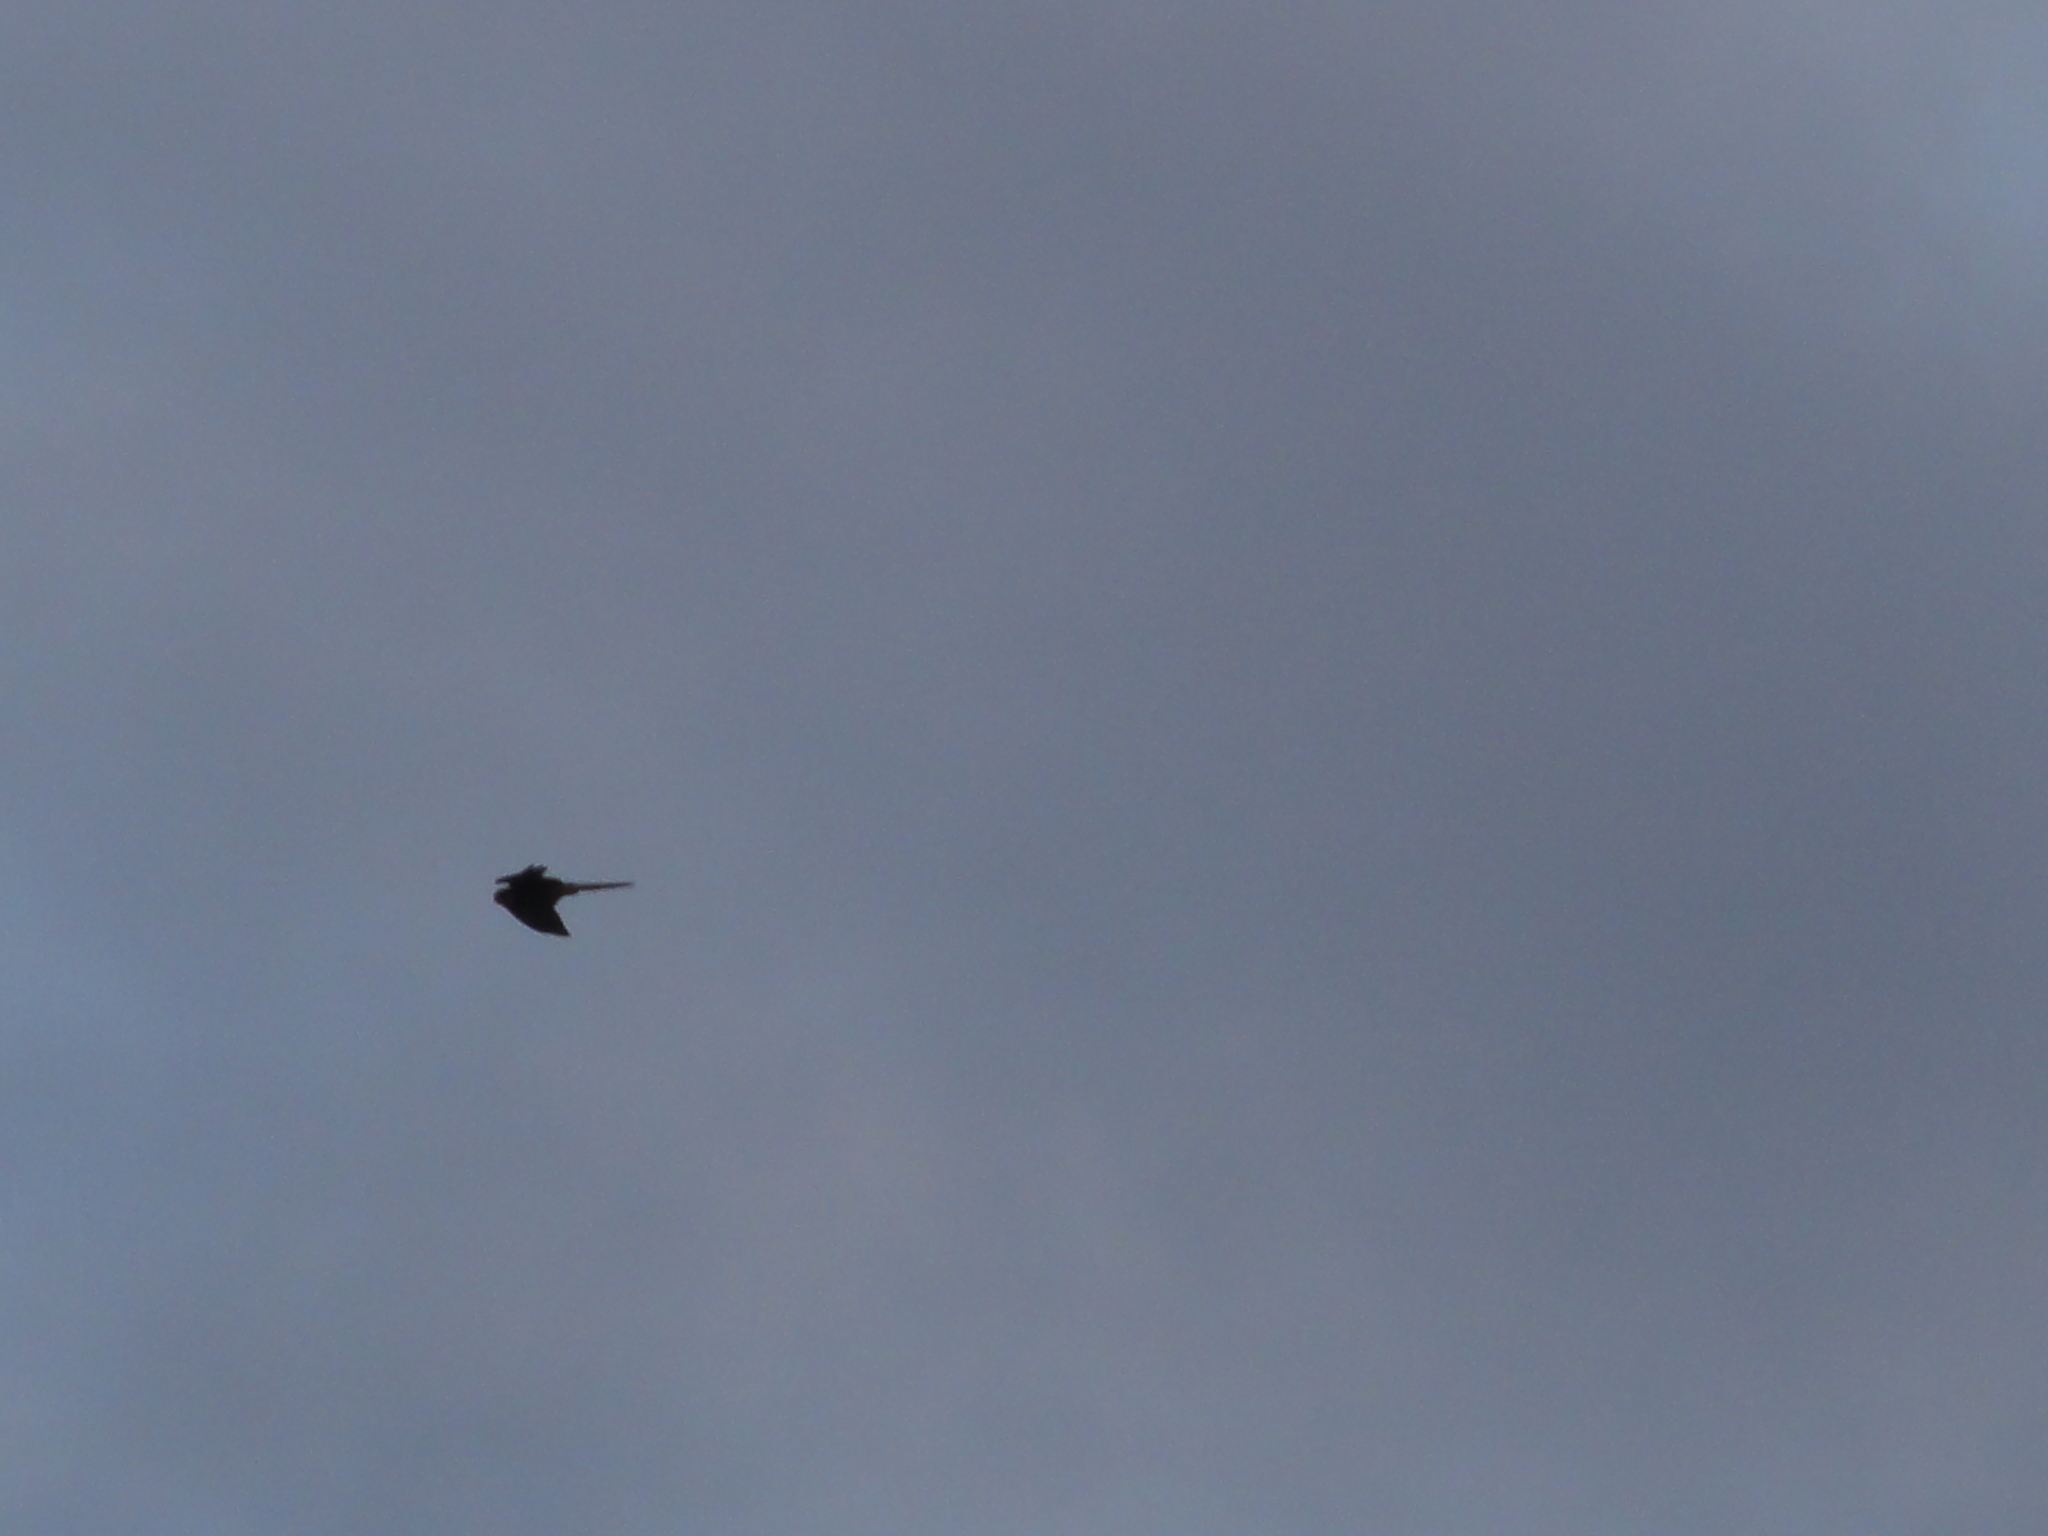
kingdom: Animalia
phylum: Chordata
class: Aves
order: Falconiformes
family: Falconidae
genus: Falco
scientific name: Falco tinnunculus
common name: Common kestrel
